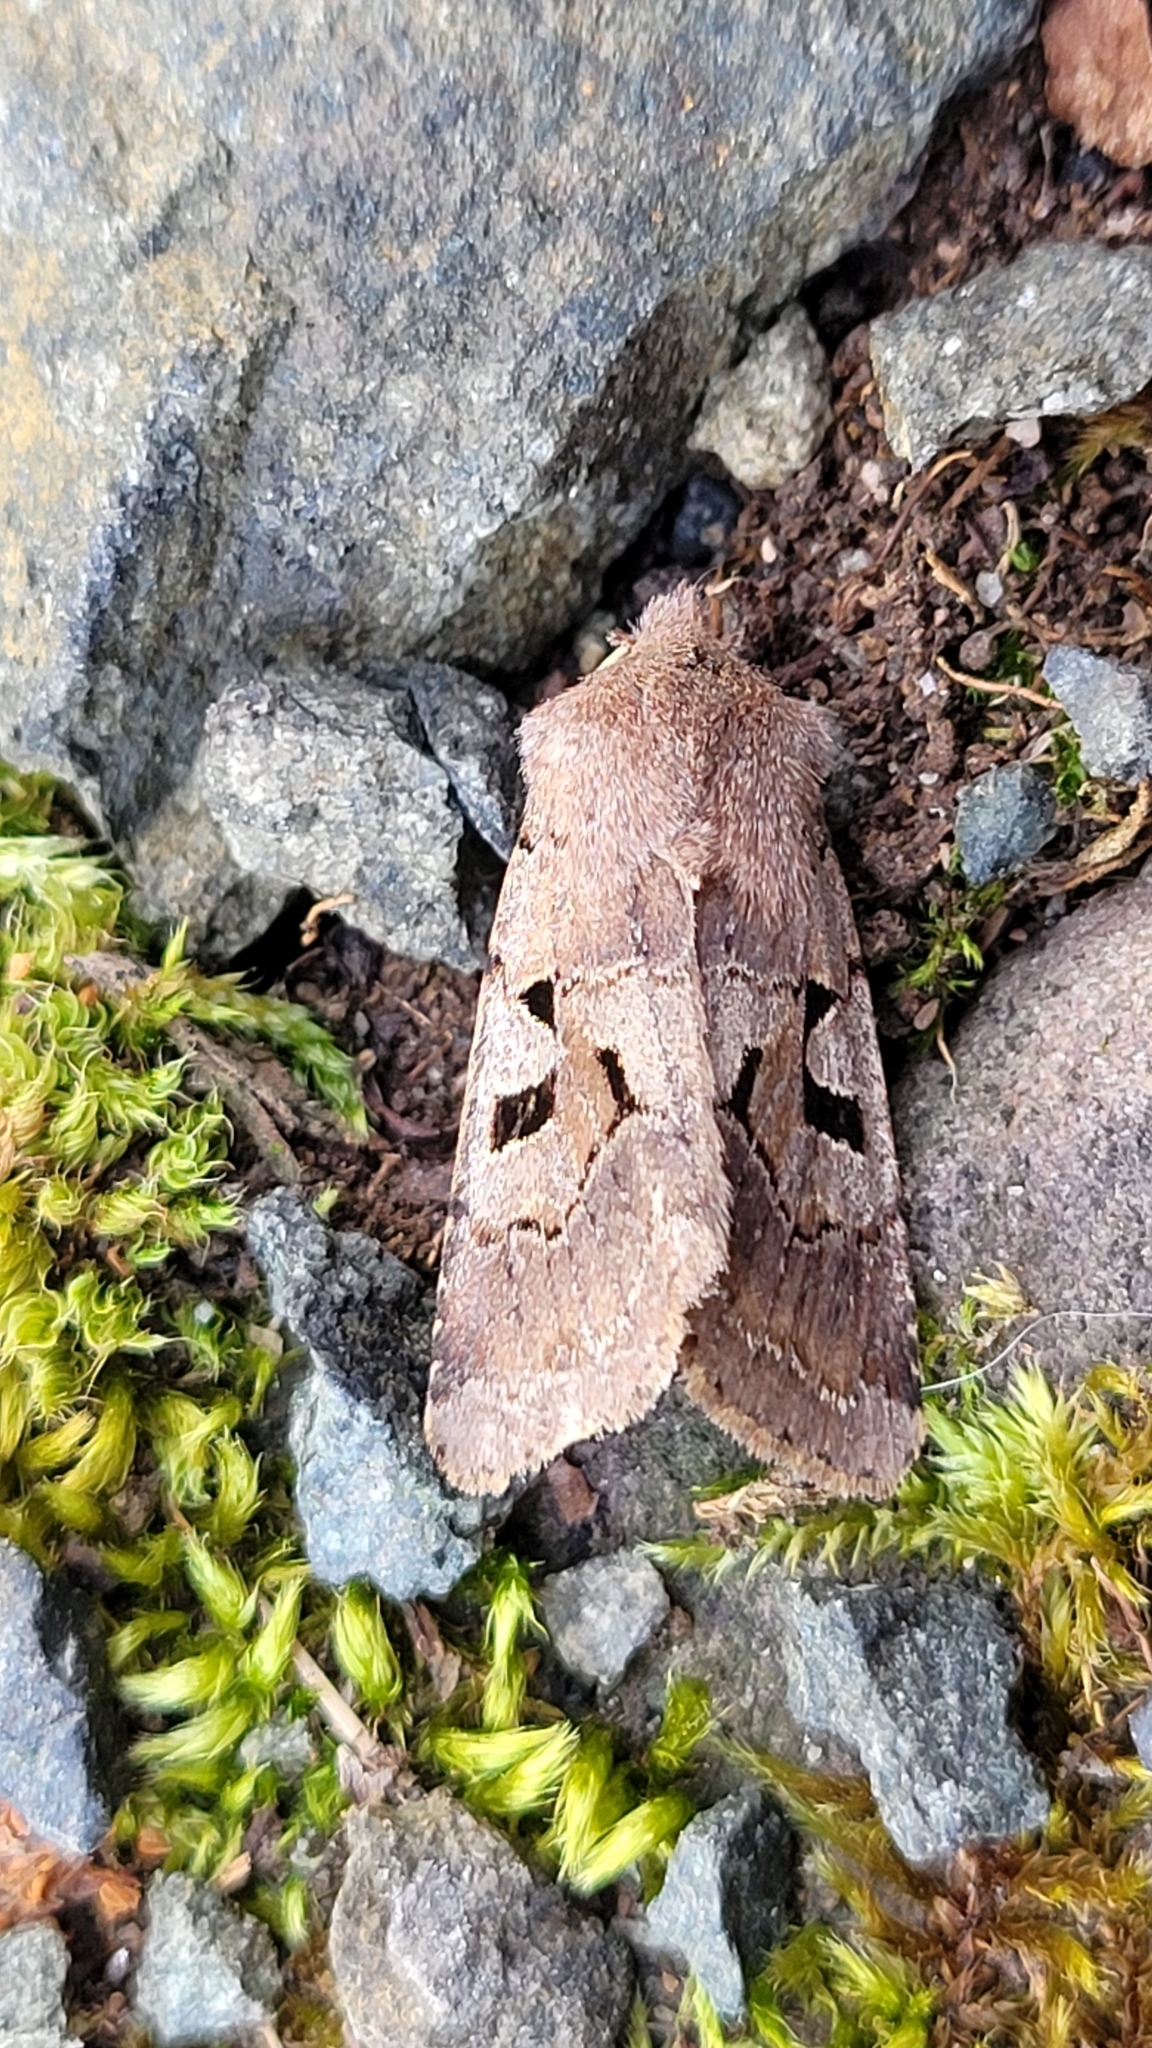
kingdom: Animalia
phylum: Arthropoda
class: Insecta
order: Lepidoptera
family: Noctuidae
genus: Orthosia
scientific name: Orthosia gothica
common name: Hebrew character
